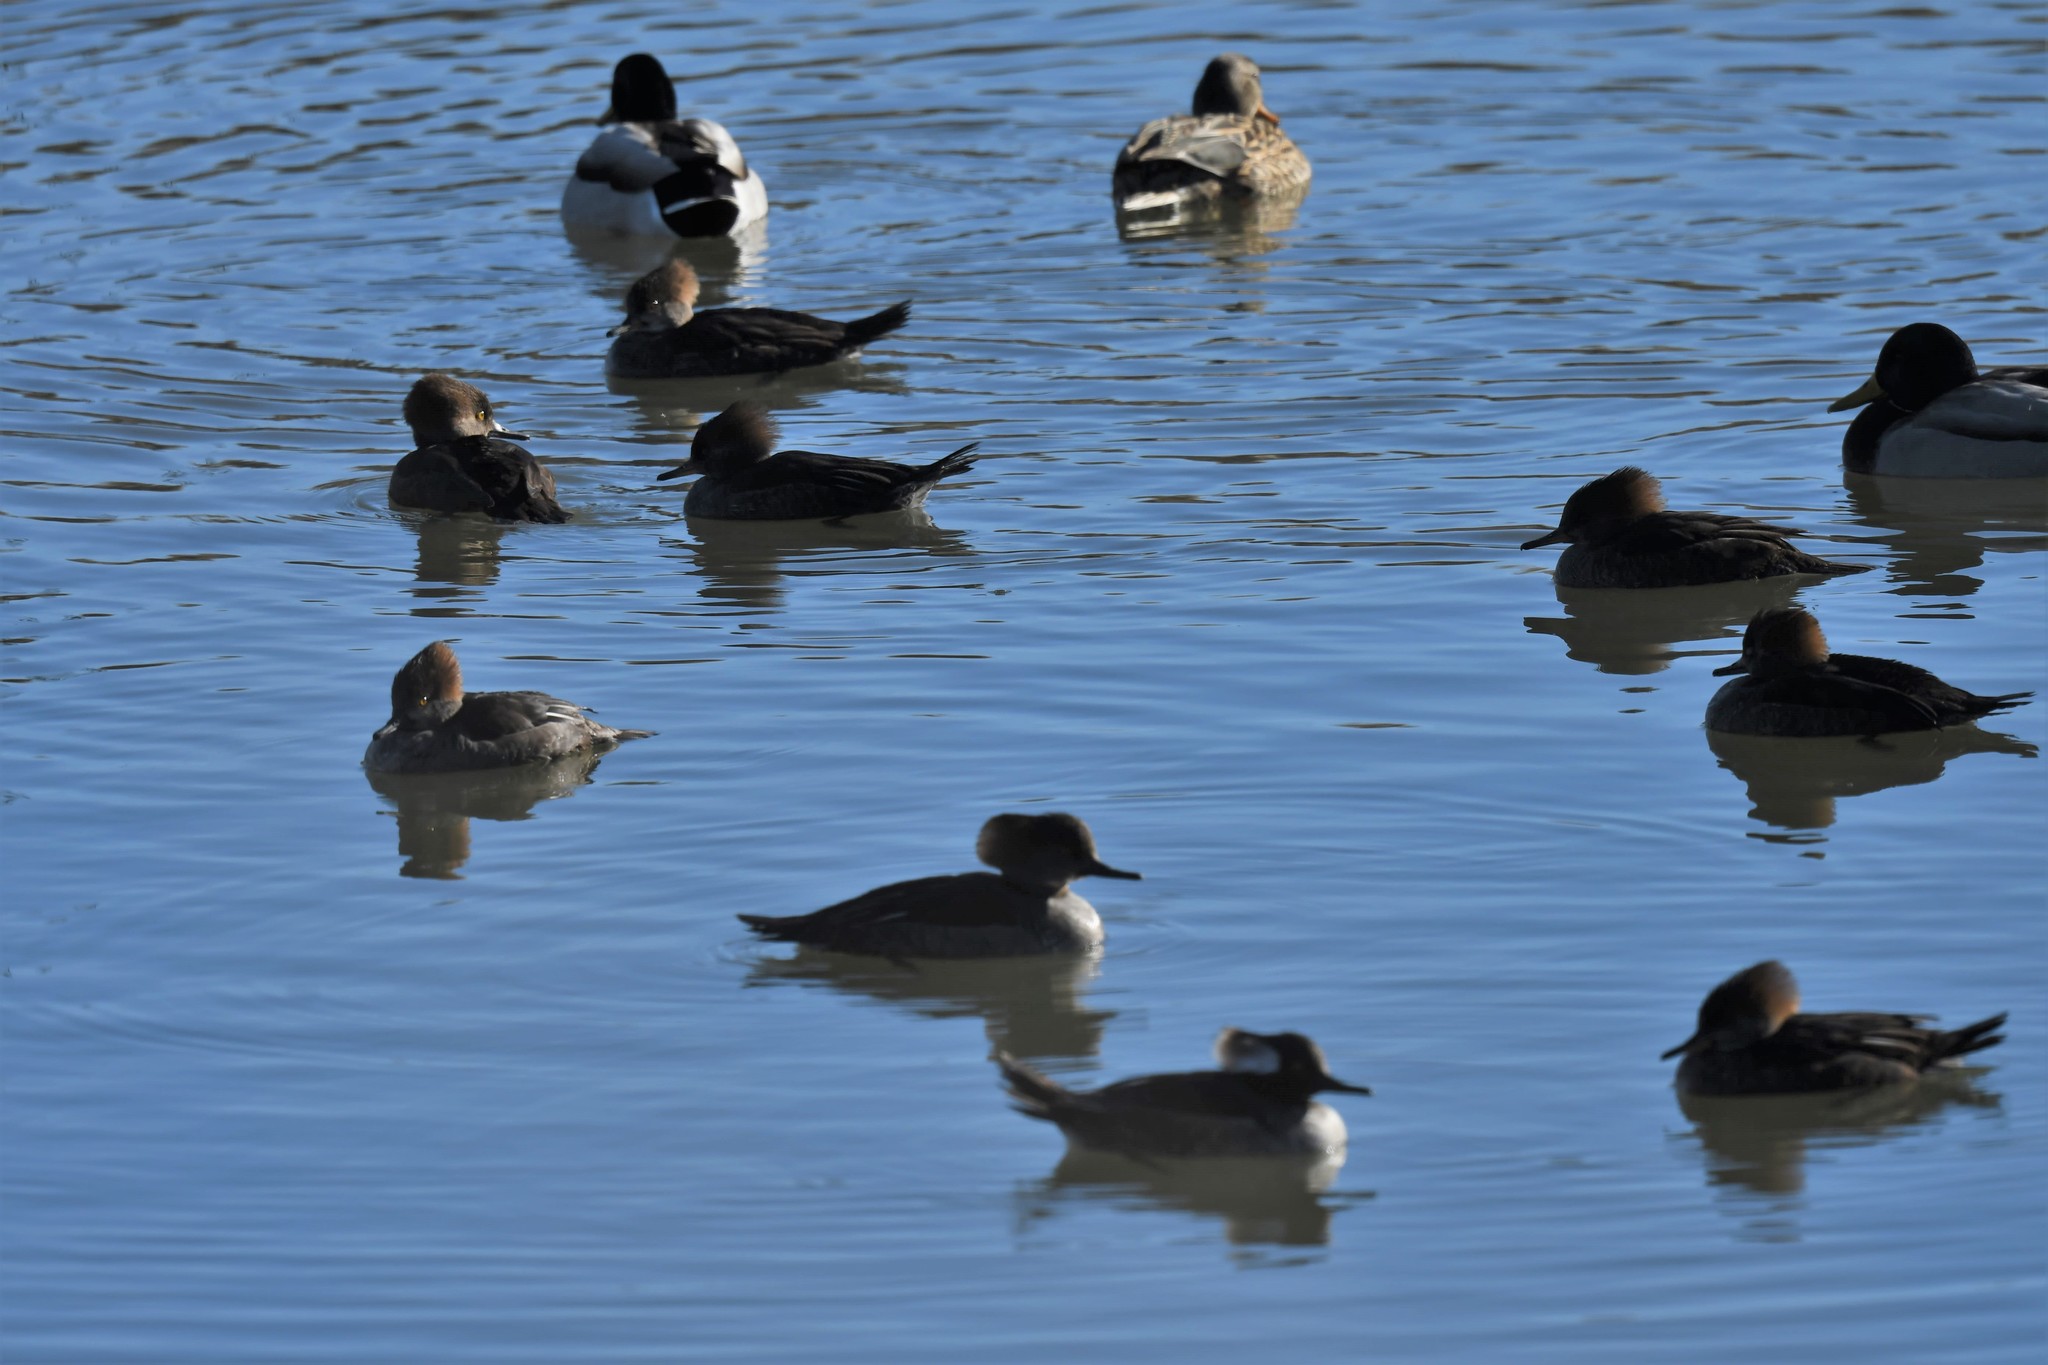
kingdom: Animalia
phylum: Chordata
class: Aves
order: Anseriformes
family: Anatidae
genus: Lophodytes
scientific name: Lophodytes cucullatus
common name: Hooded merganser
